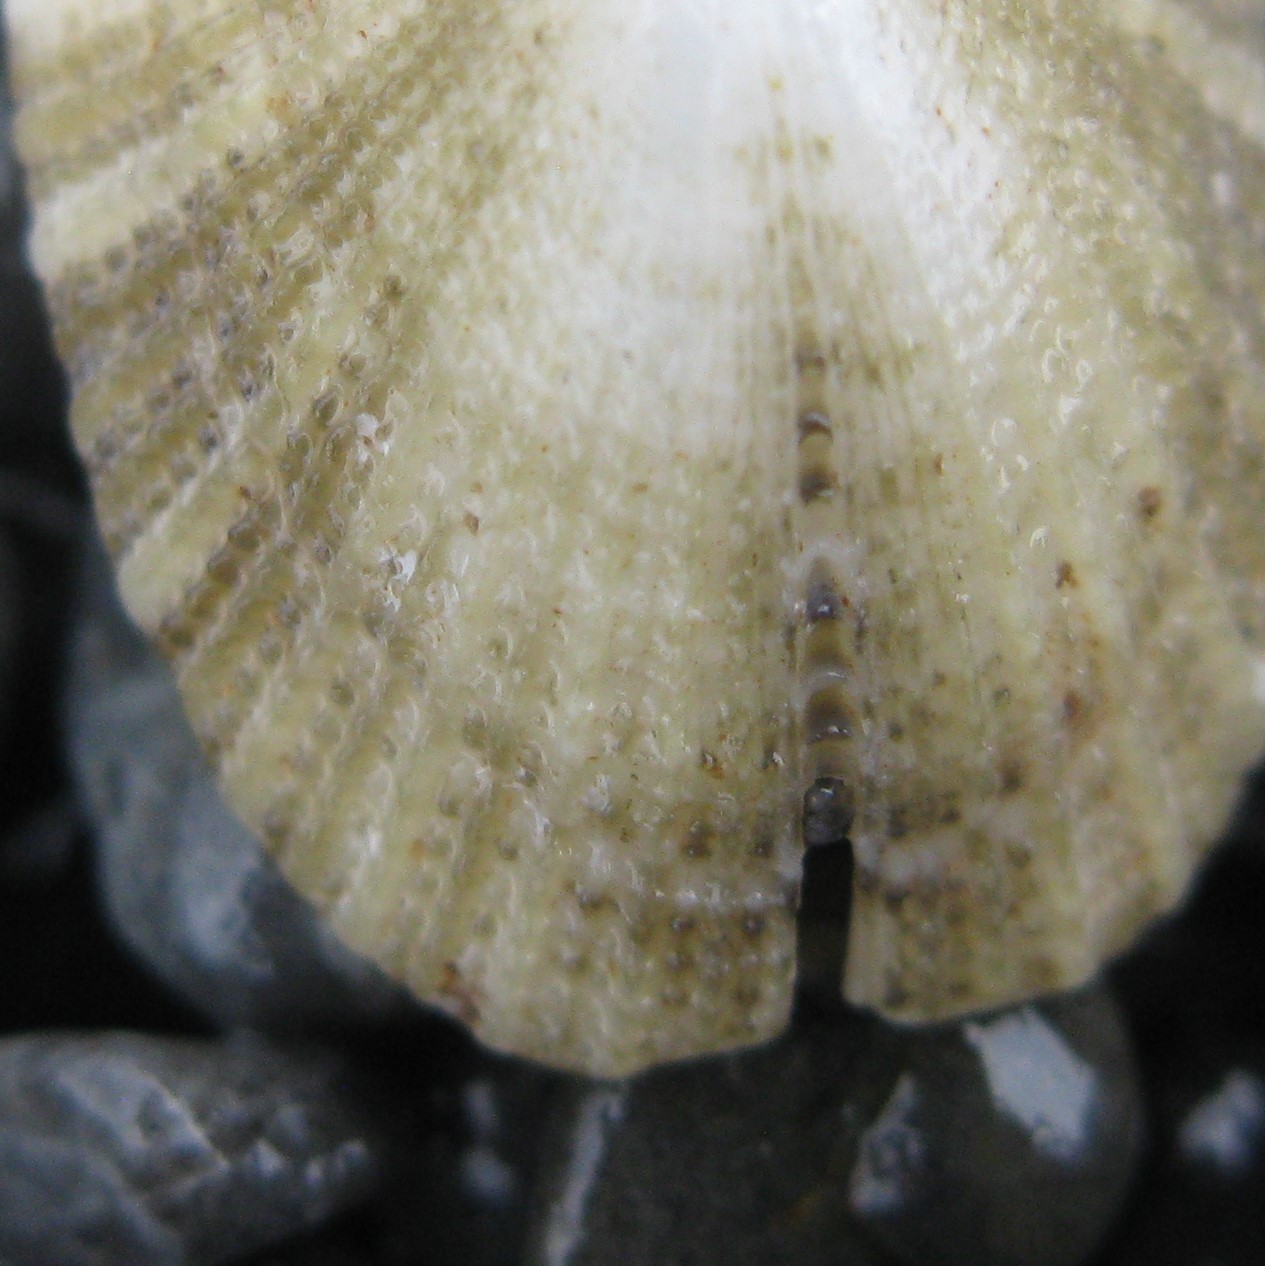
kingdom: Animalia
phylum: Mollusca
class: Gastropoda
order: Lepetellida
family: Fissurellidae
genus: Emarginula
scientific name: Emarginula striatula
